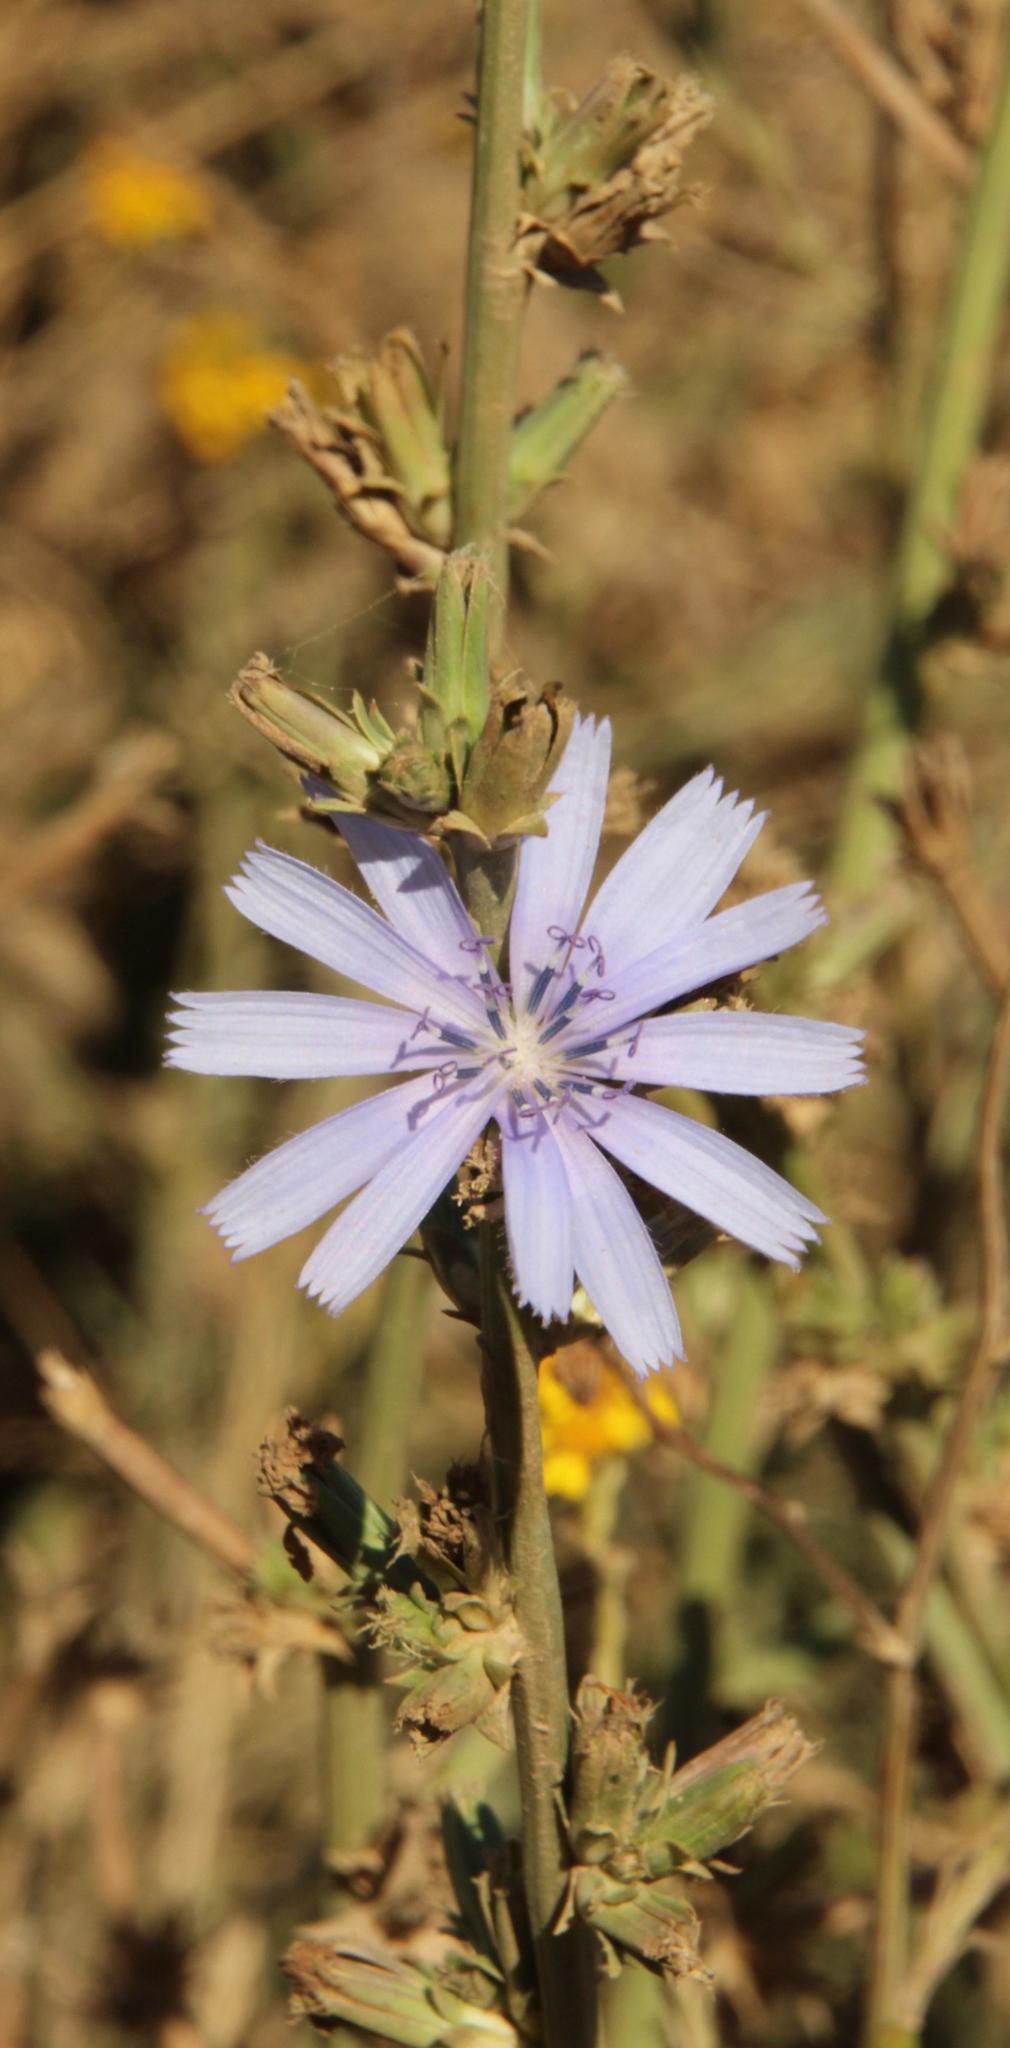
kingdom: Plantae
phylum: Tracheophyta
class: Magnoliopsida
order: Asterales
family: Asteraceae
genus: Cichorium
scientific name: Cichorium intybus
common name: Chicory
